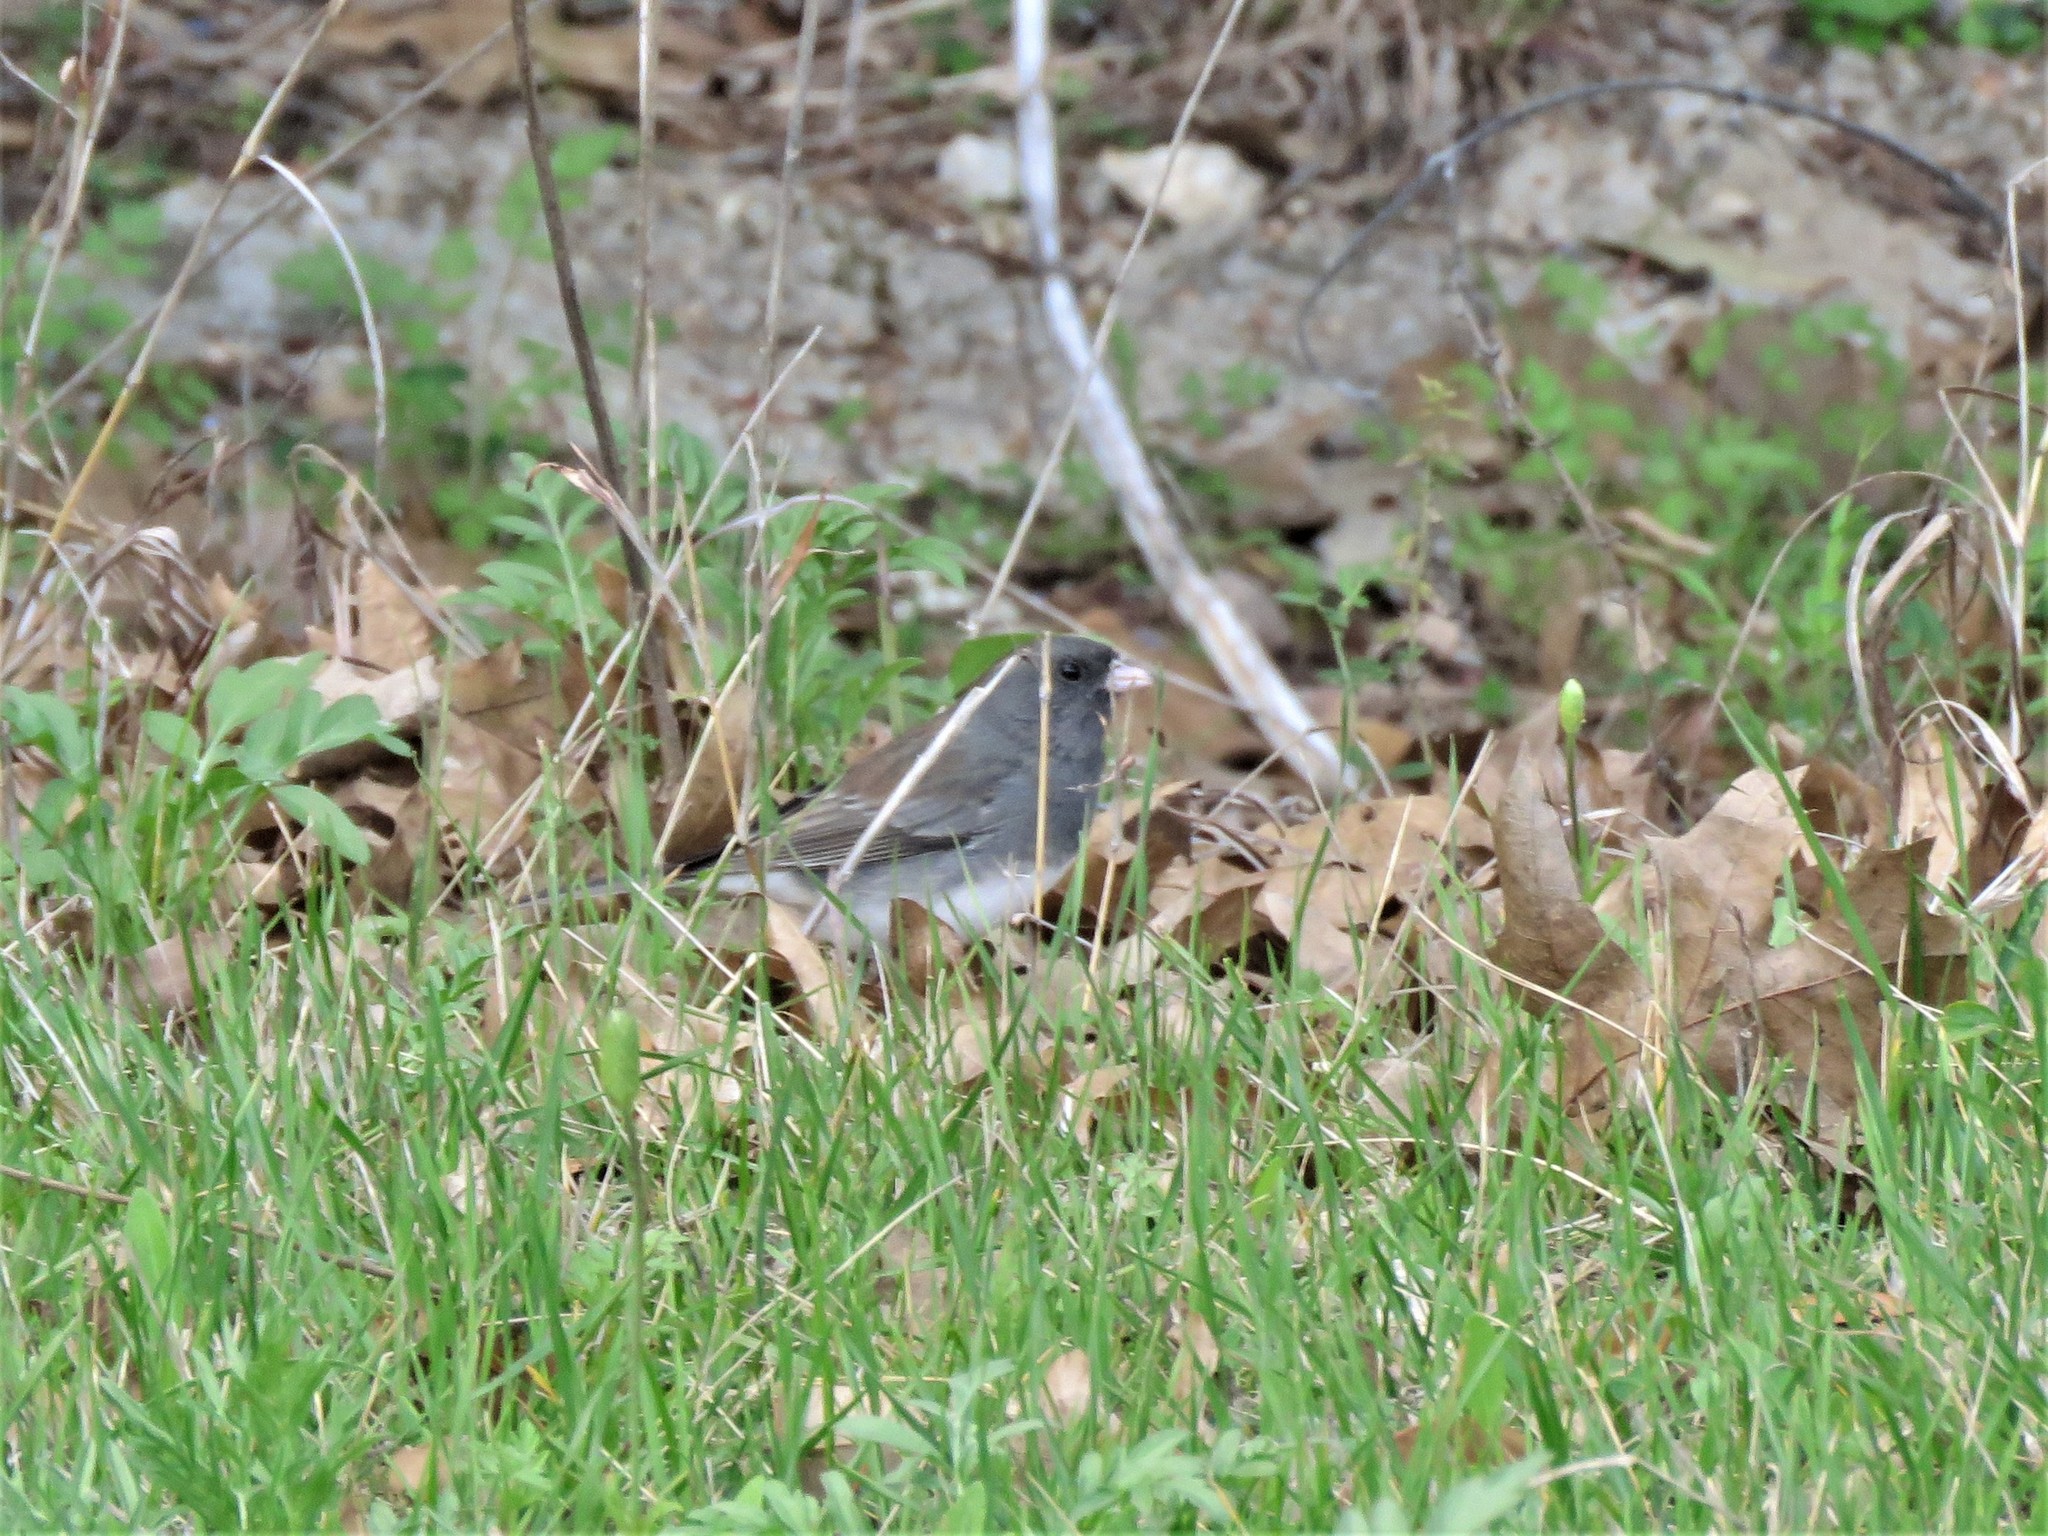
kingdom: Animalia
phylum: Chordata
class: Aves
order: Passeriformes
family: Passerellidae
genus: Junco
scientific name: Junco hyemalis
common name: Dark-eyed junco
